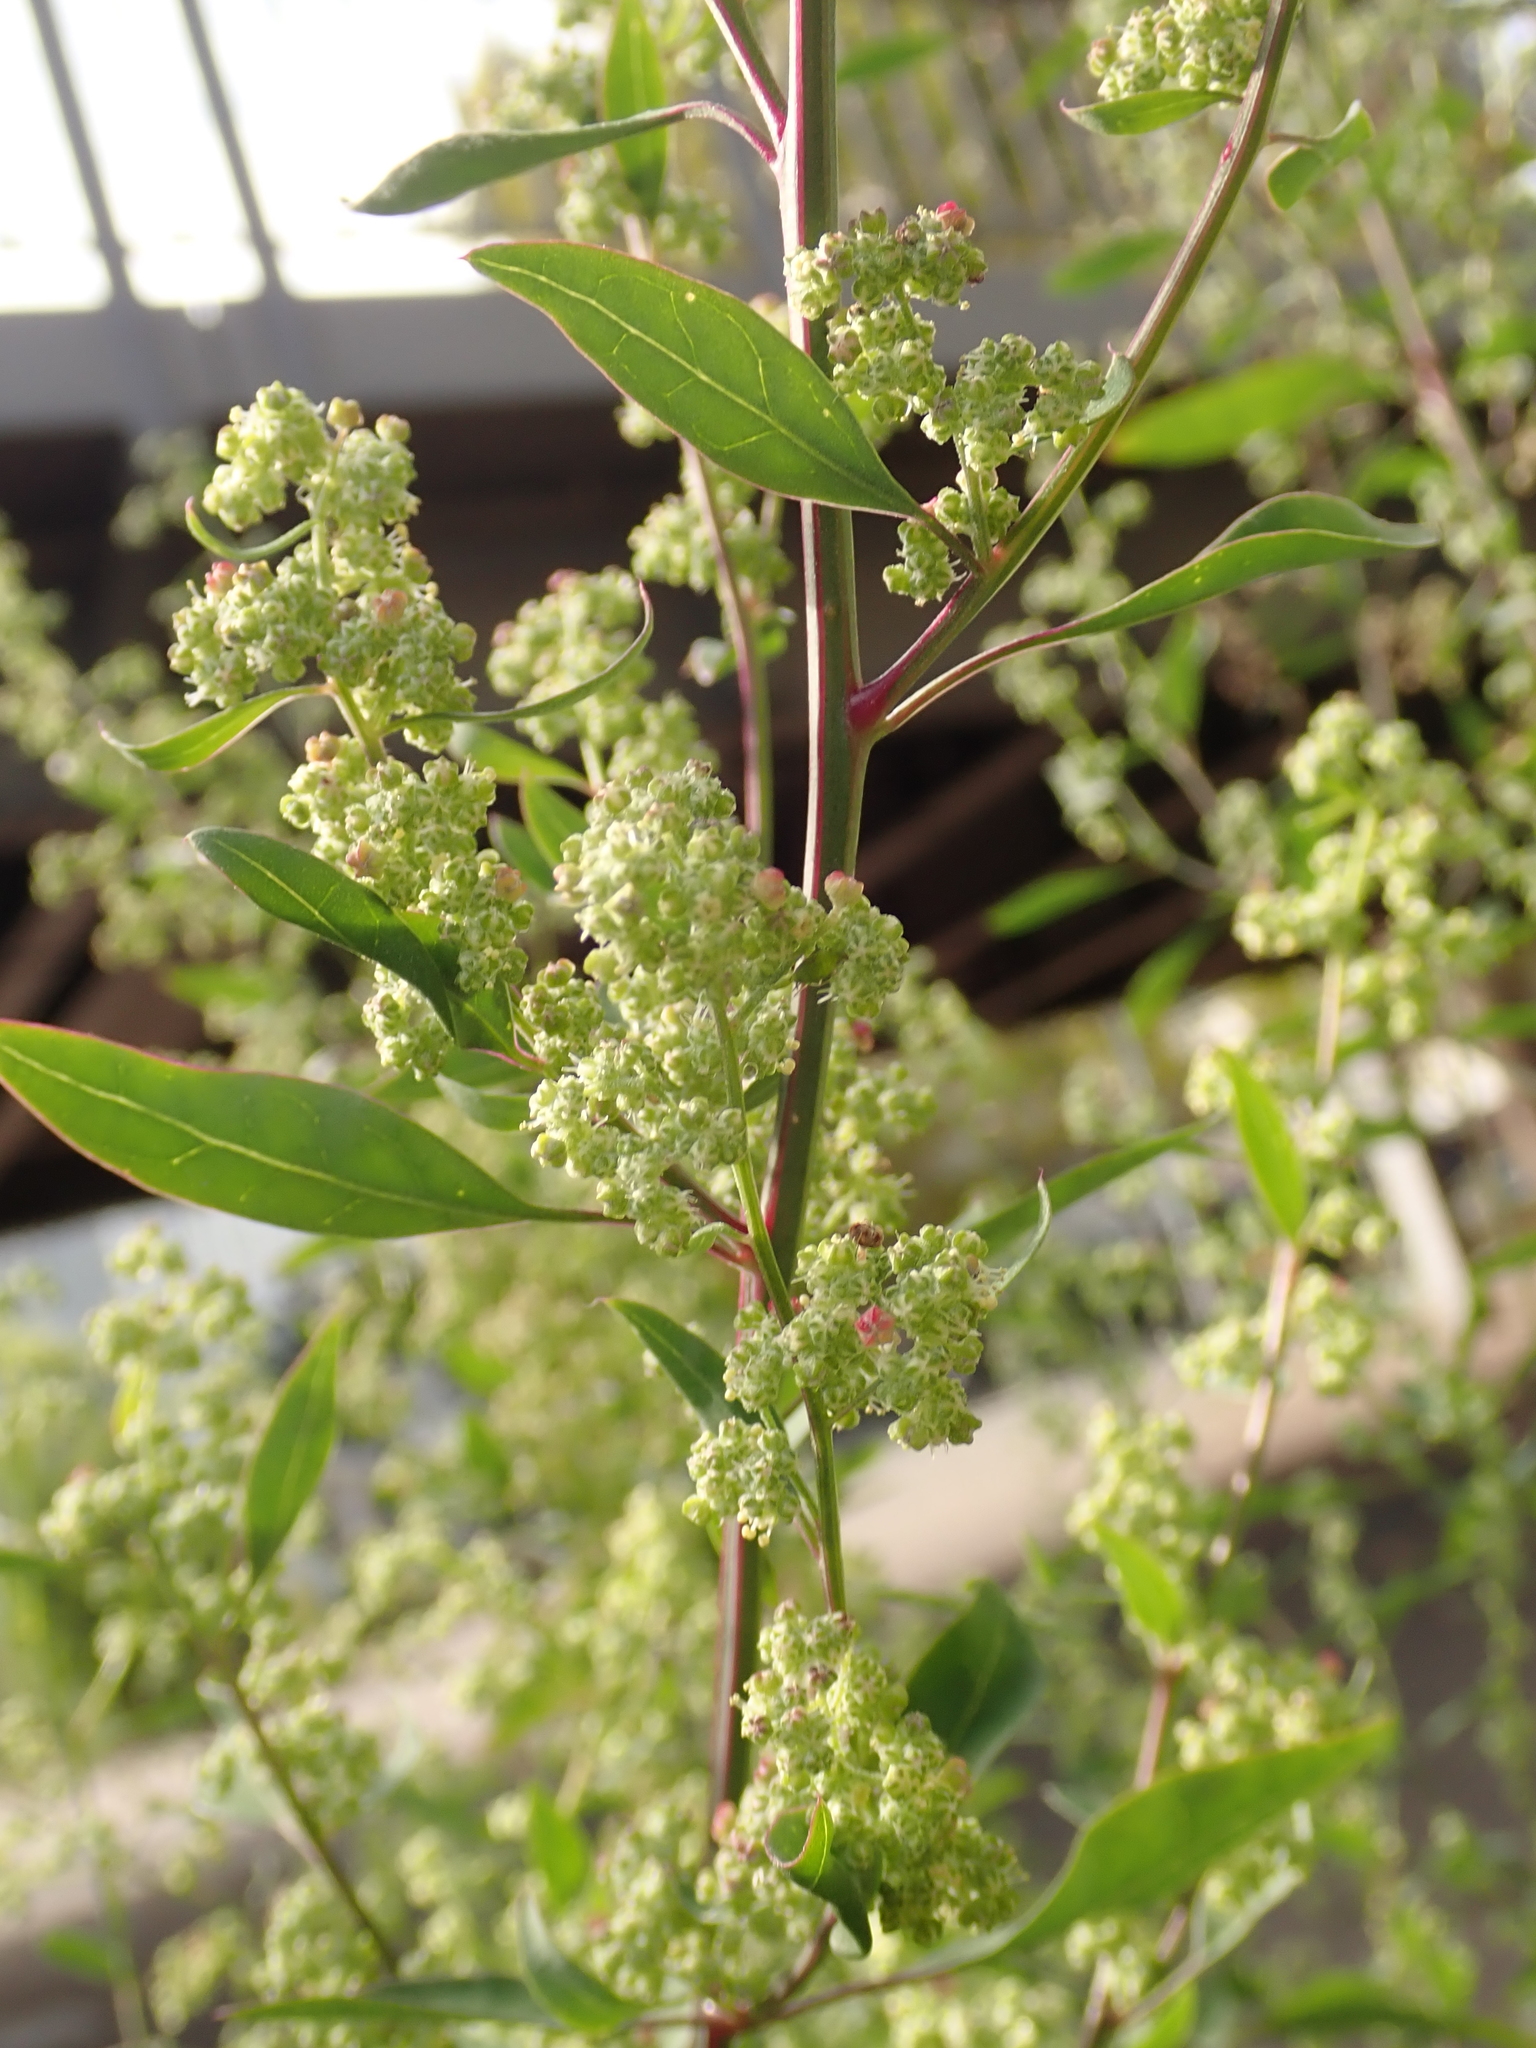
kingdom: Plantae
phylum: Tracheophyta
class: Magnoliopsida
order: Caryophyllales
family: Amaranthaceae
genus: Chenopodium
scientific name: Chenopodium album
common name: Fat-hen
